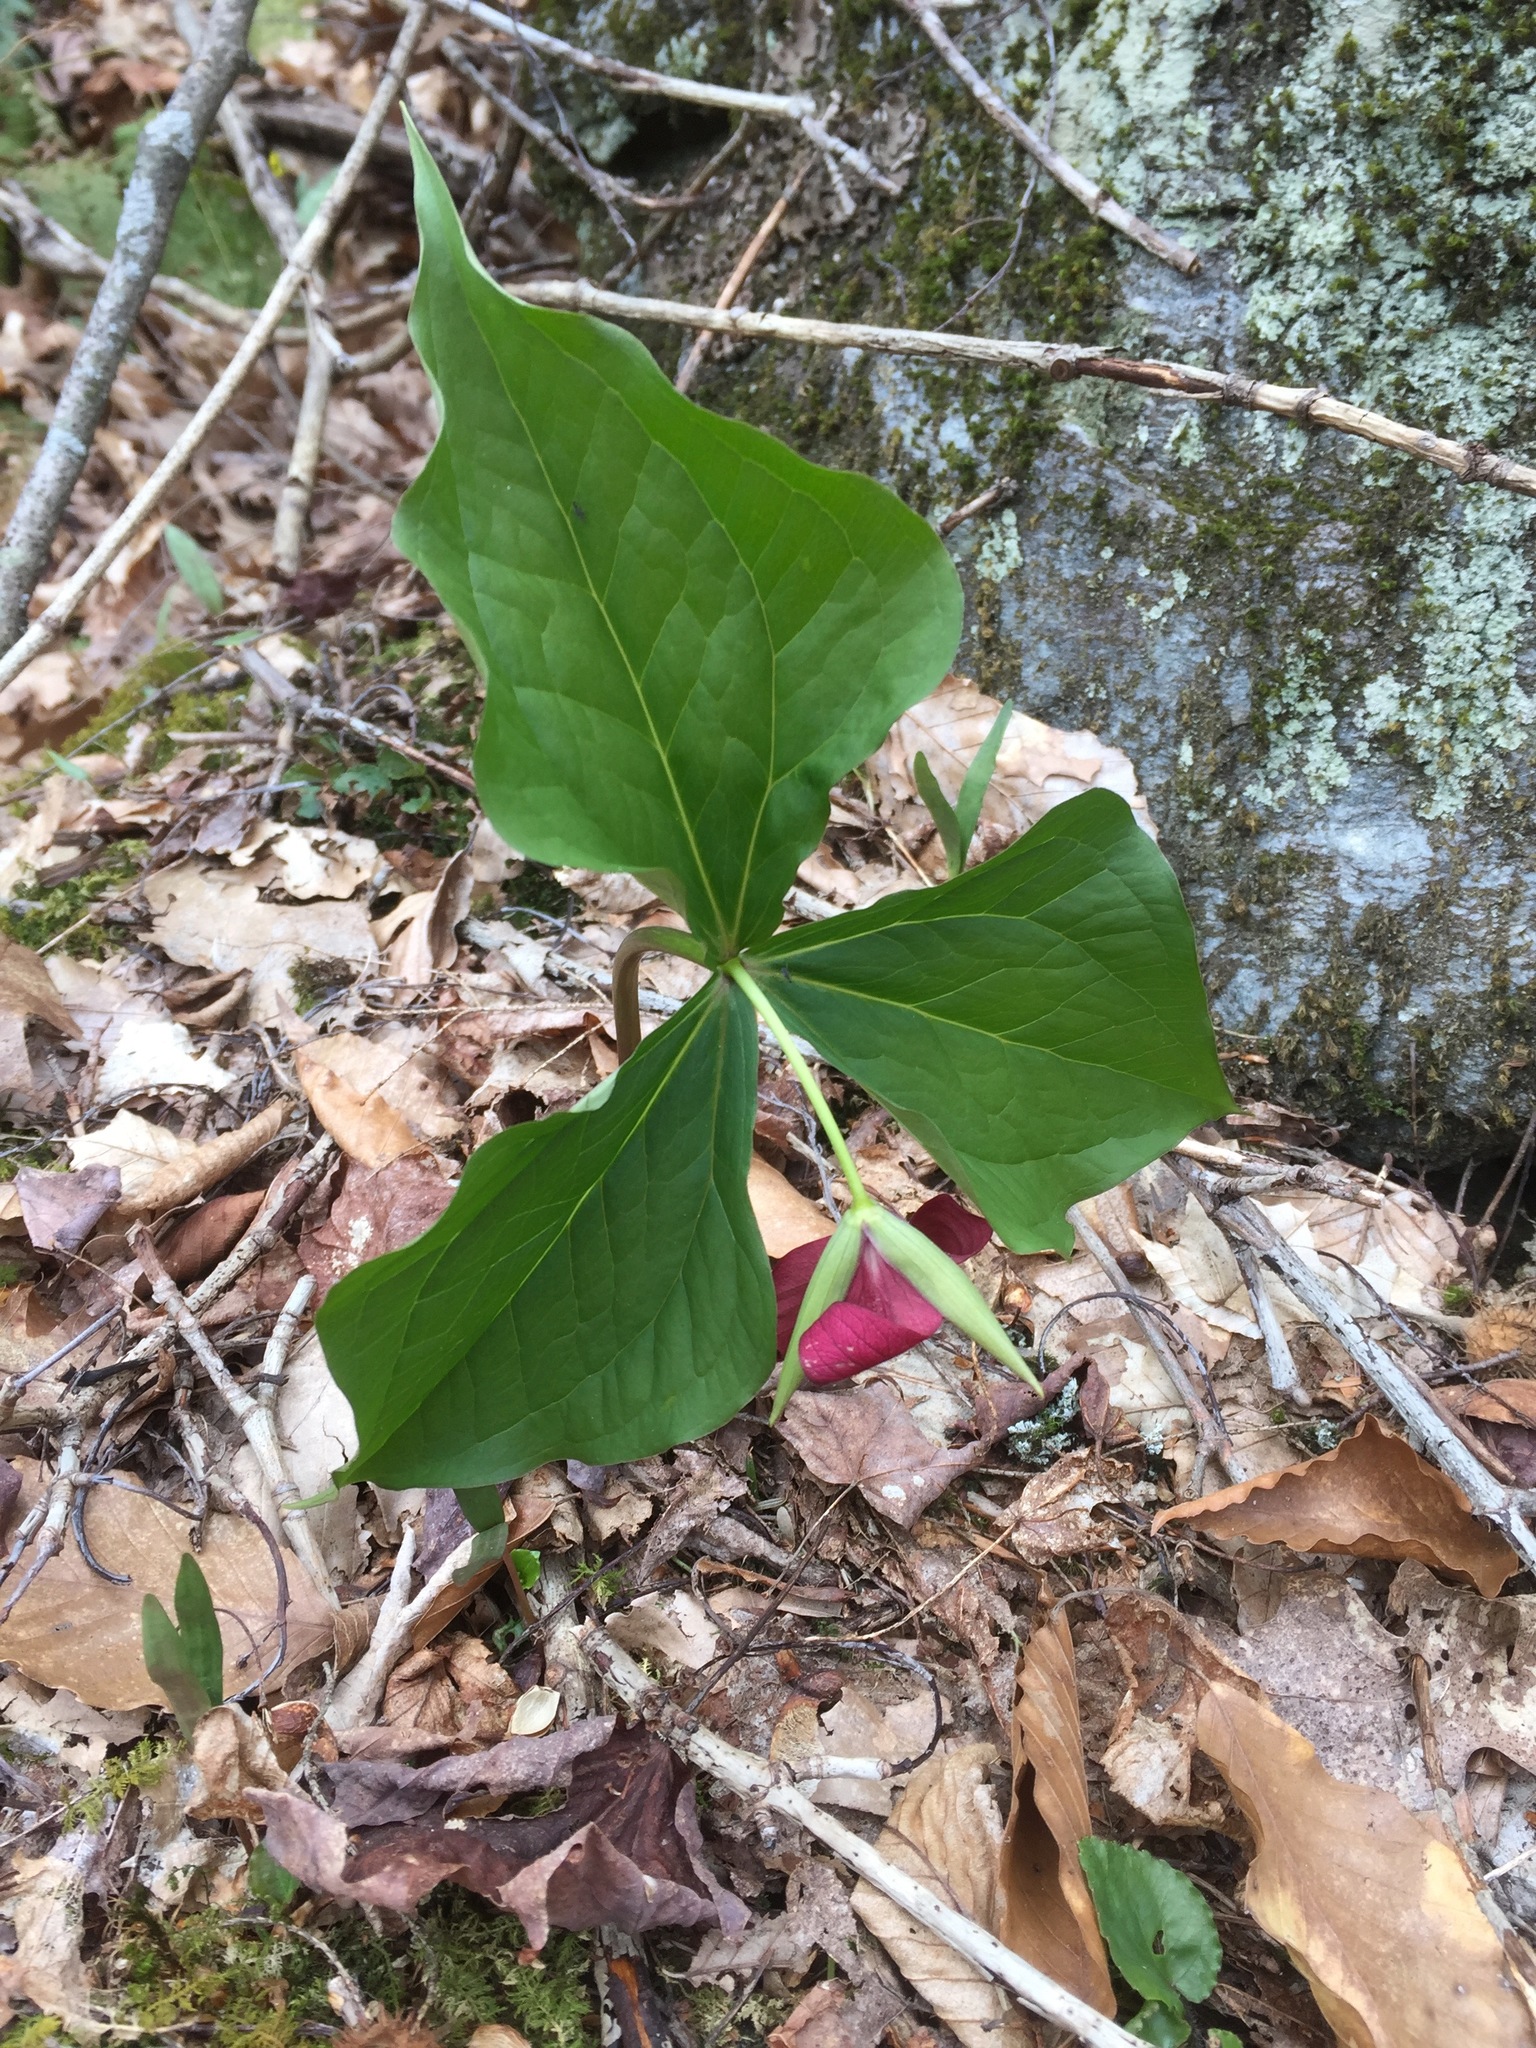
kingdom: Plantae
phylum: Tracheophyta
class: Liliopsida
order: Liliales
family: Melanthiaceae
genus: Trillium
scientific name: Trillium erectum
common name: Purple trillium
